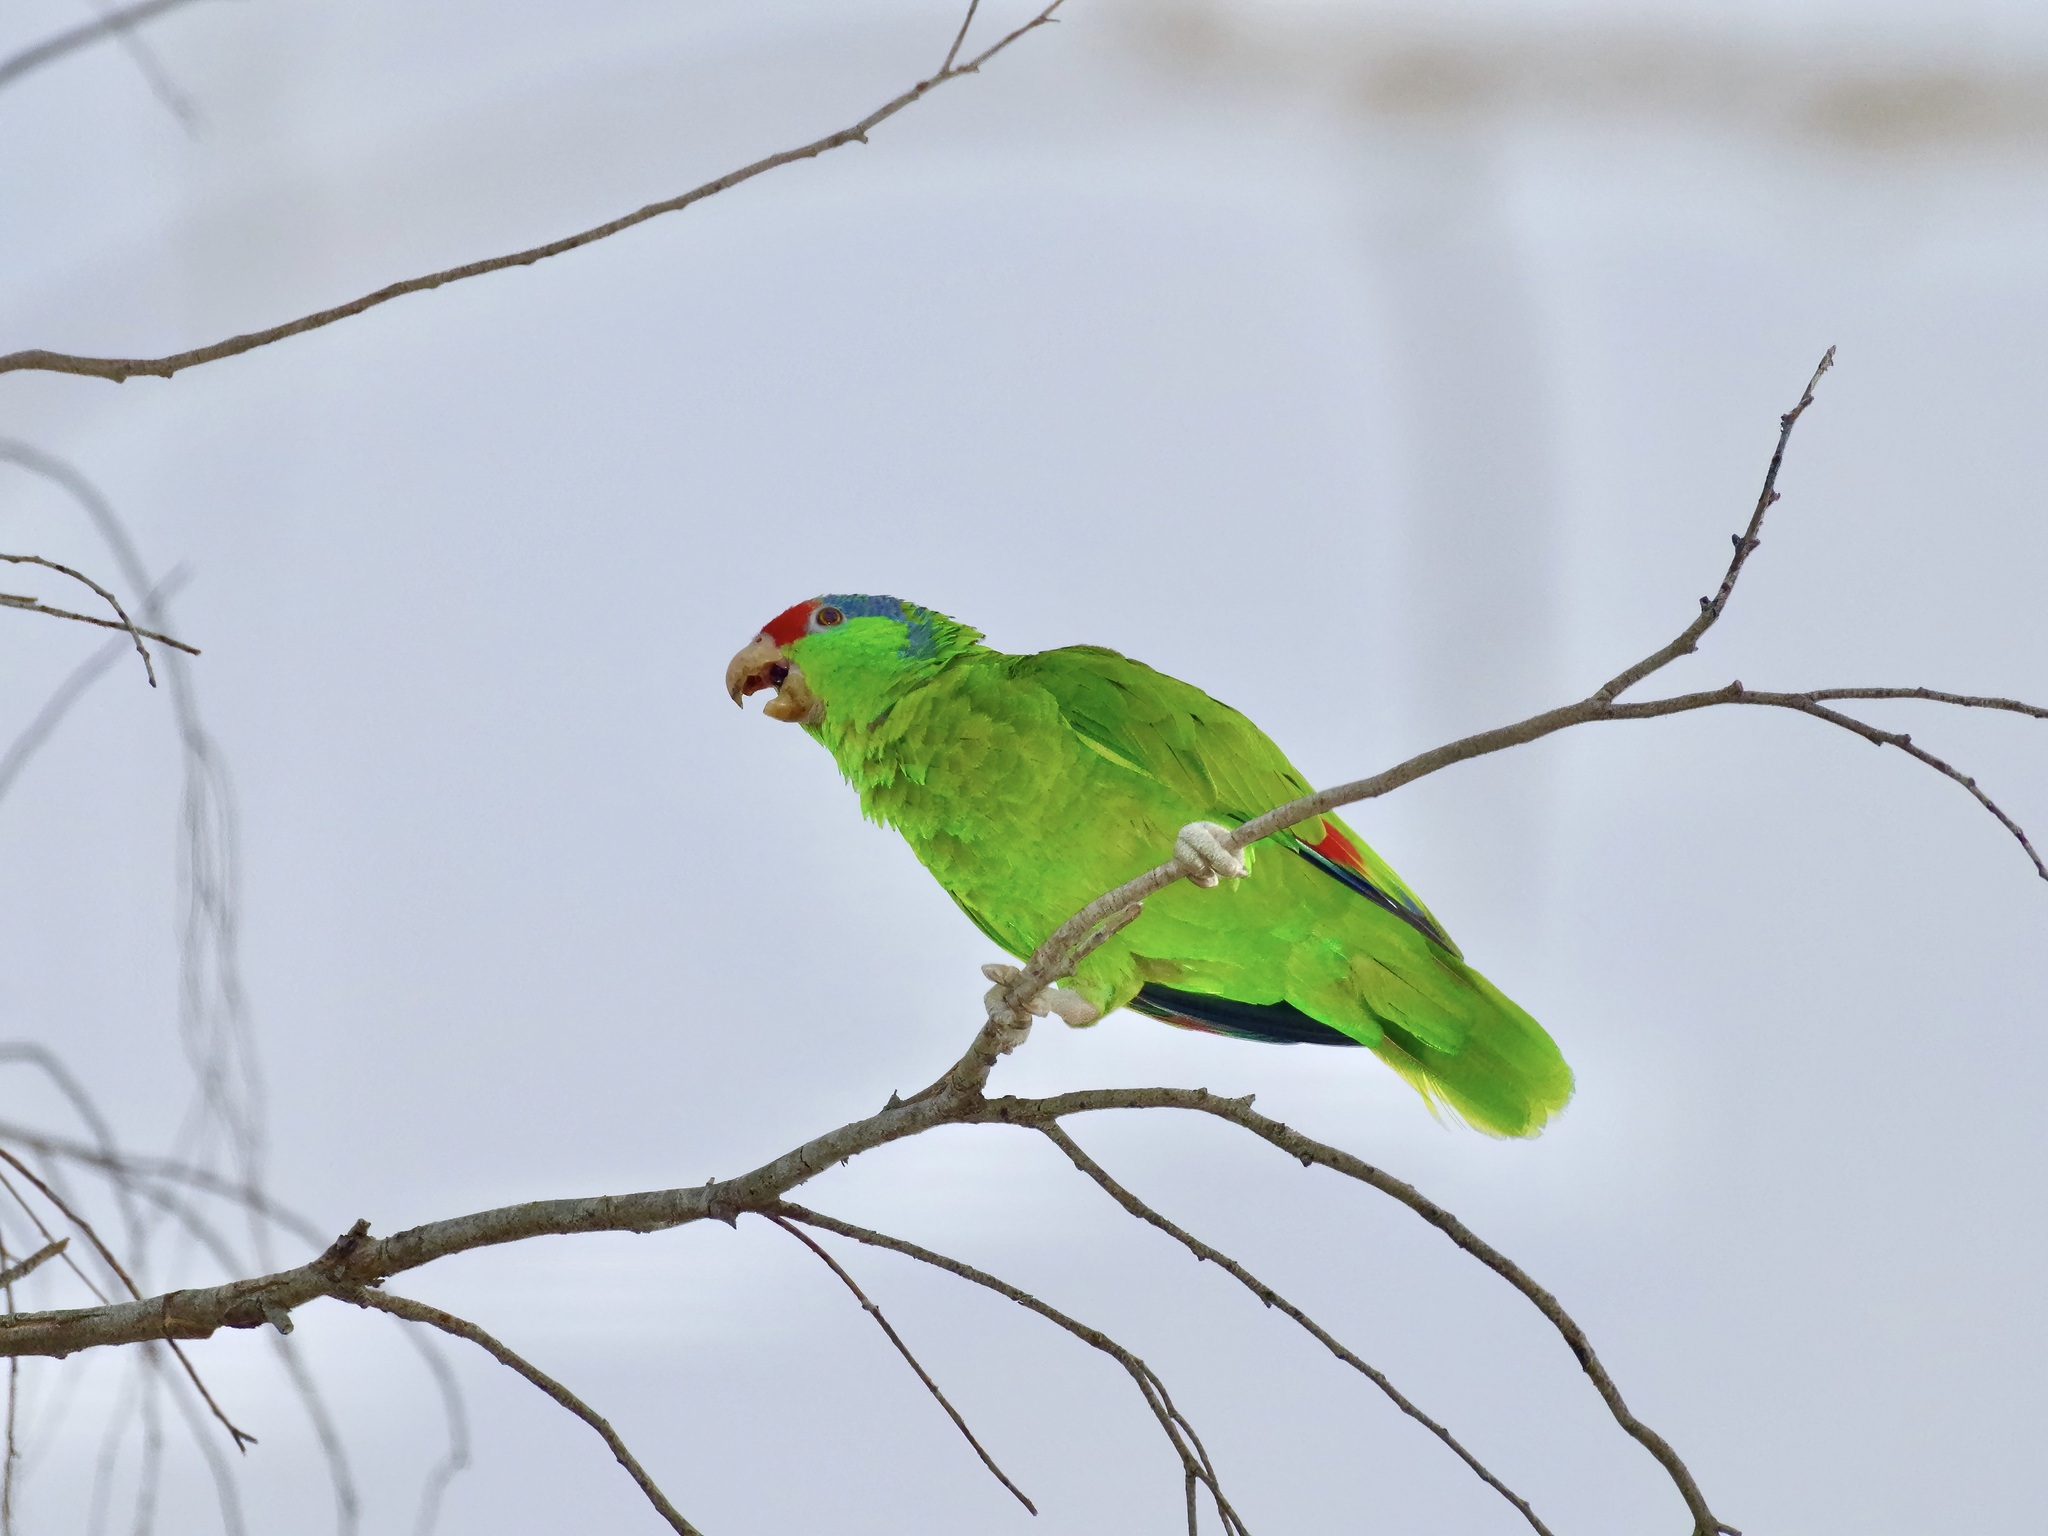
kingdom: Animalia
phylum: Chordata
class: Aves
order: Psittaciformes
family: Psittacidae
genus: Amazona
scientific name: Amazona viridigenalis
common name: Red-crowned amazon
